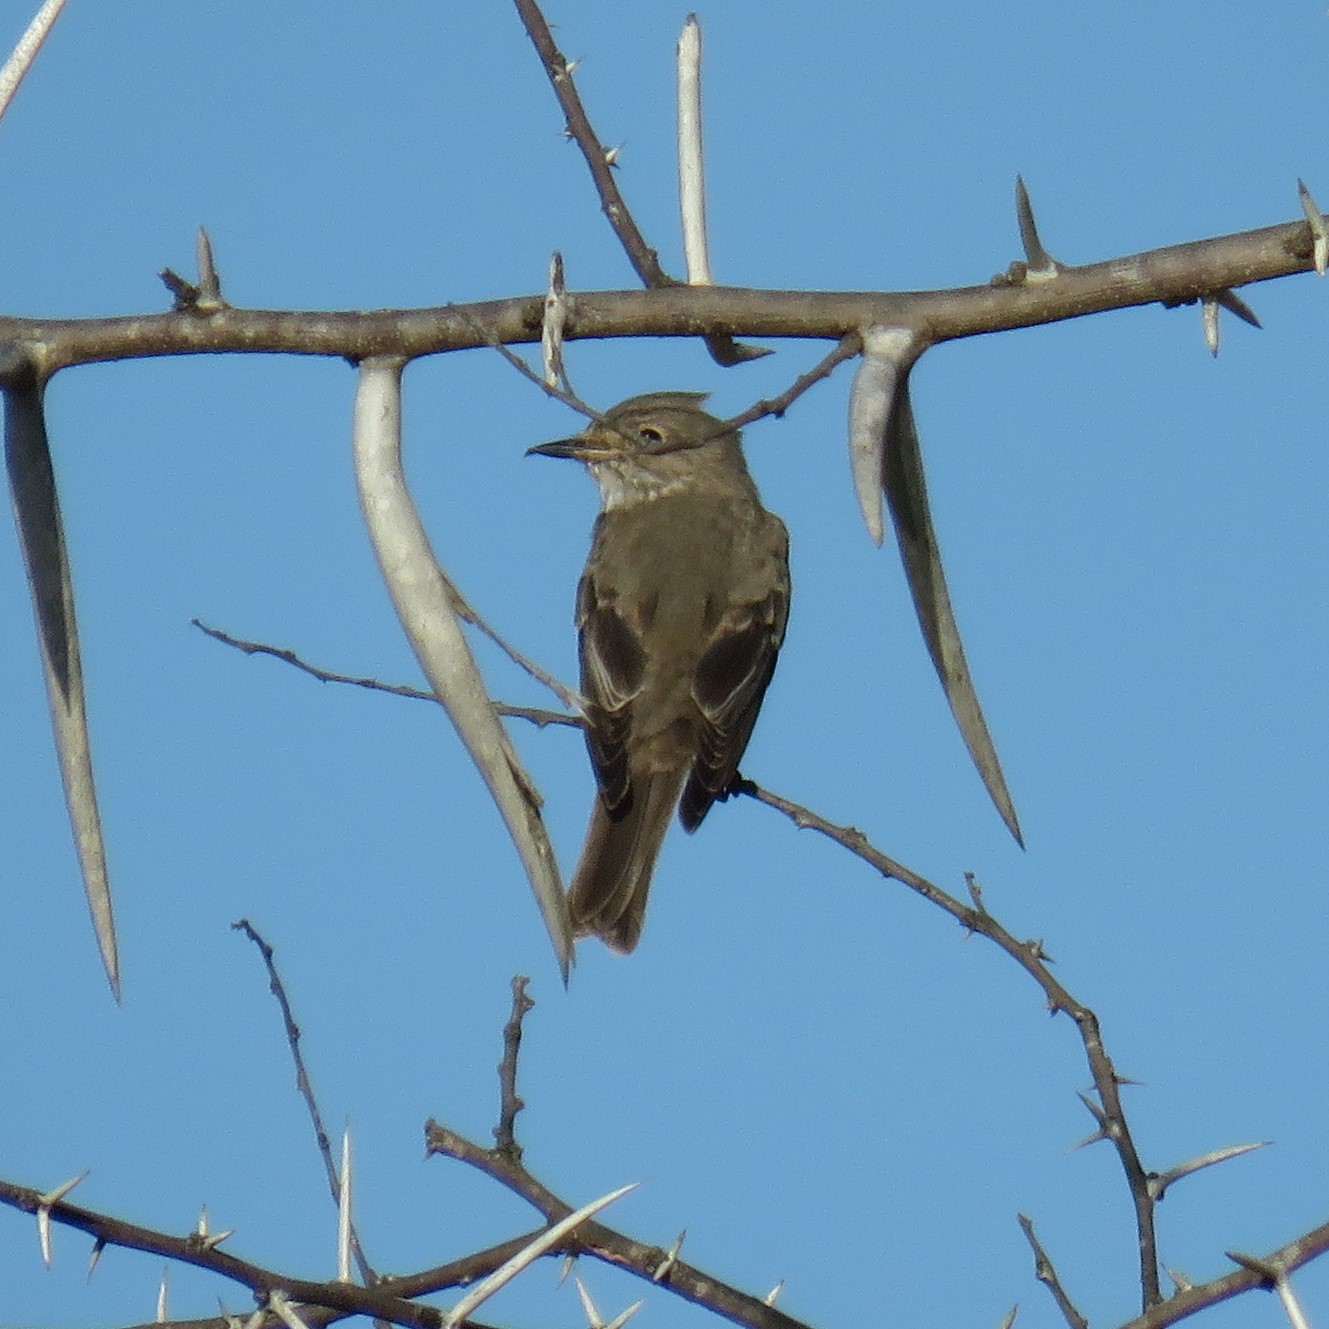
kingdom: Animalia
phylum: Chordata
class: Aves
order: Passeriformes
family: Muscicapidae
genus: Muscicapa
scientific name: Muscicapa striata
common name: Spotted flycatcher
